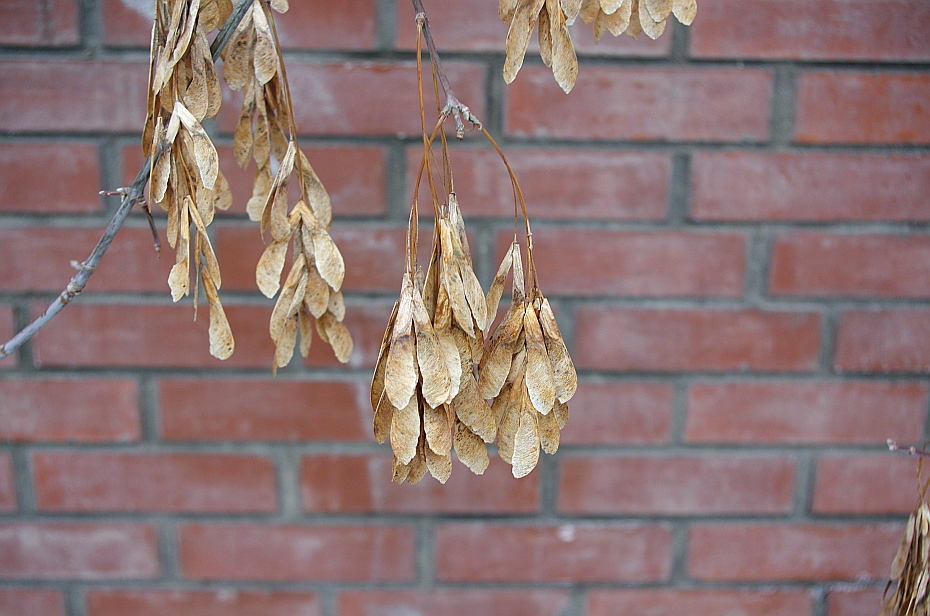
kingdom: Plantae
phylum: Tracheophyta
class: Magnoliopsida
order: Sapindales
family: Sapindaceae
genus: Acer
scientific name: Acer negundo
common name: Ashleaf maple
